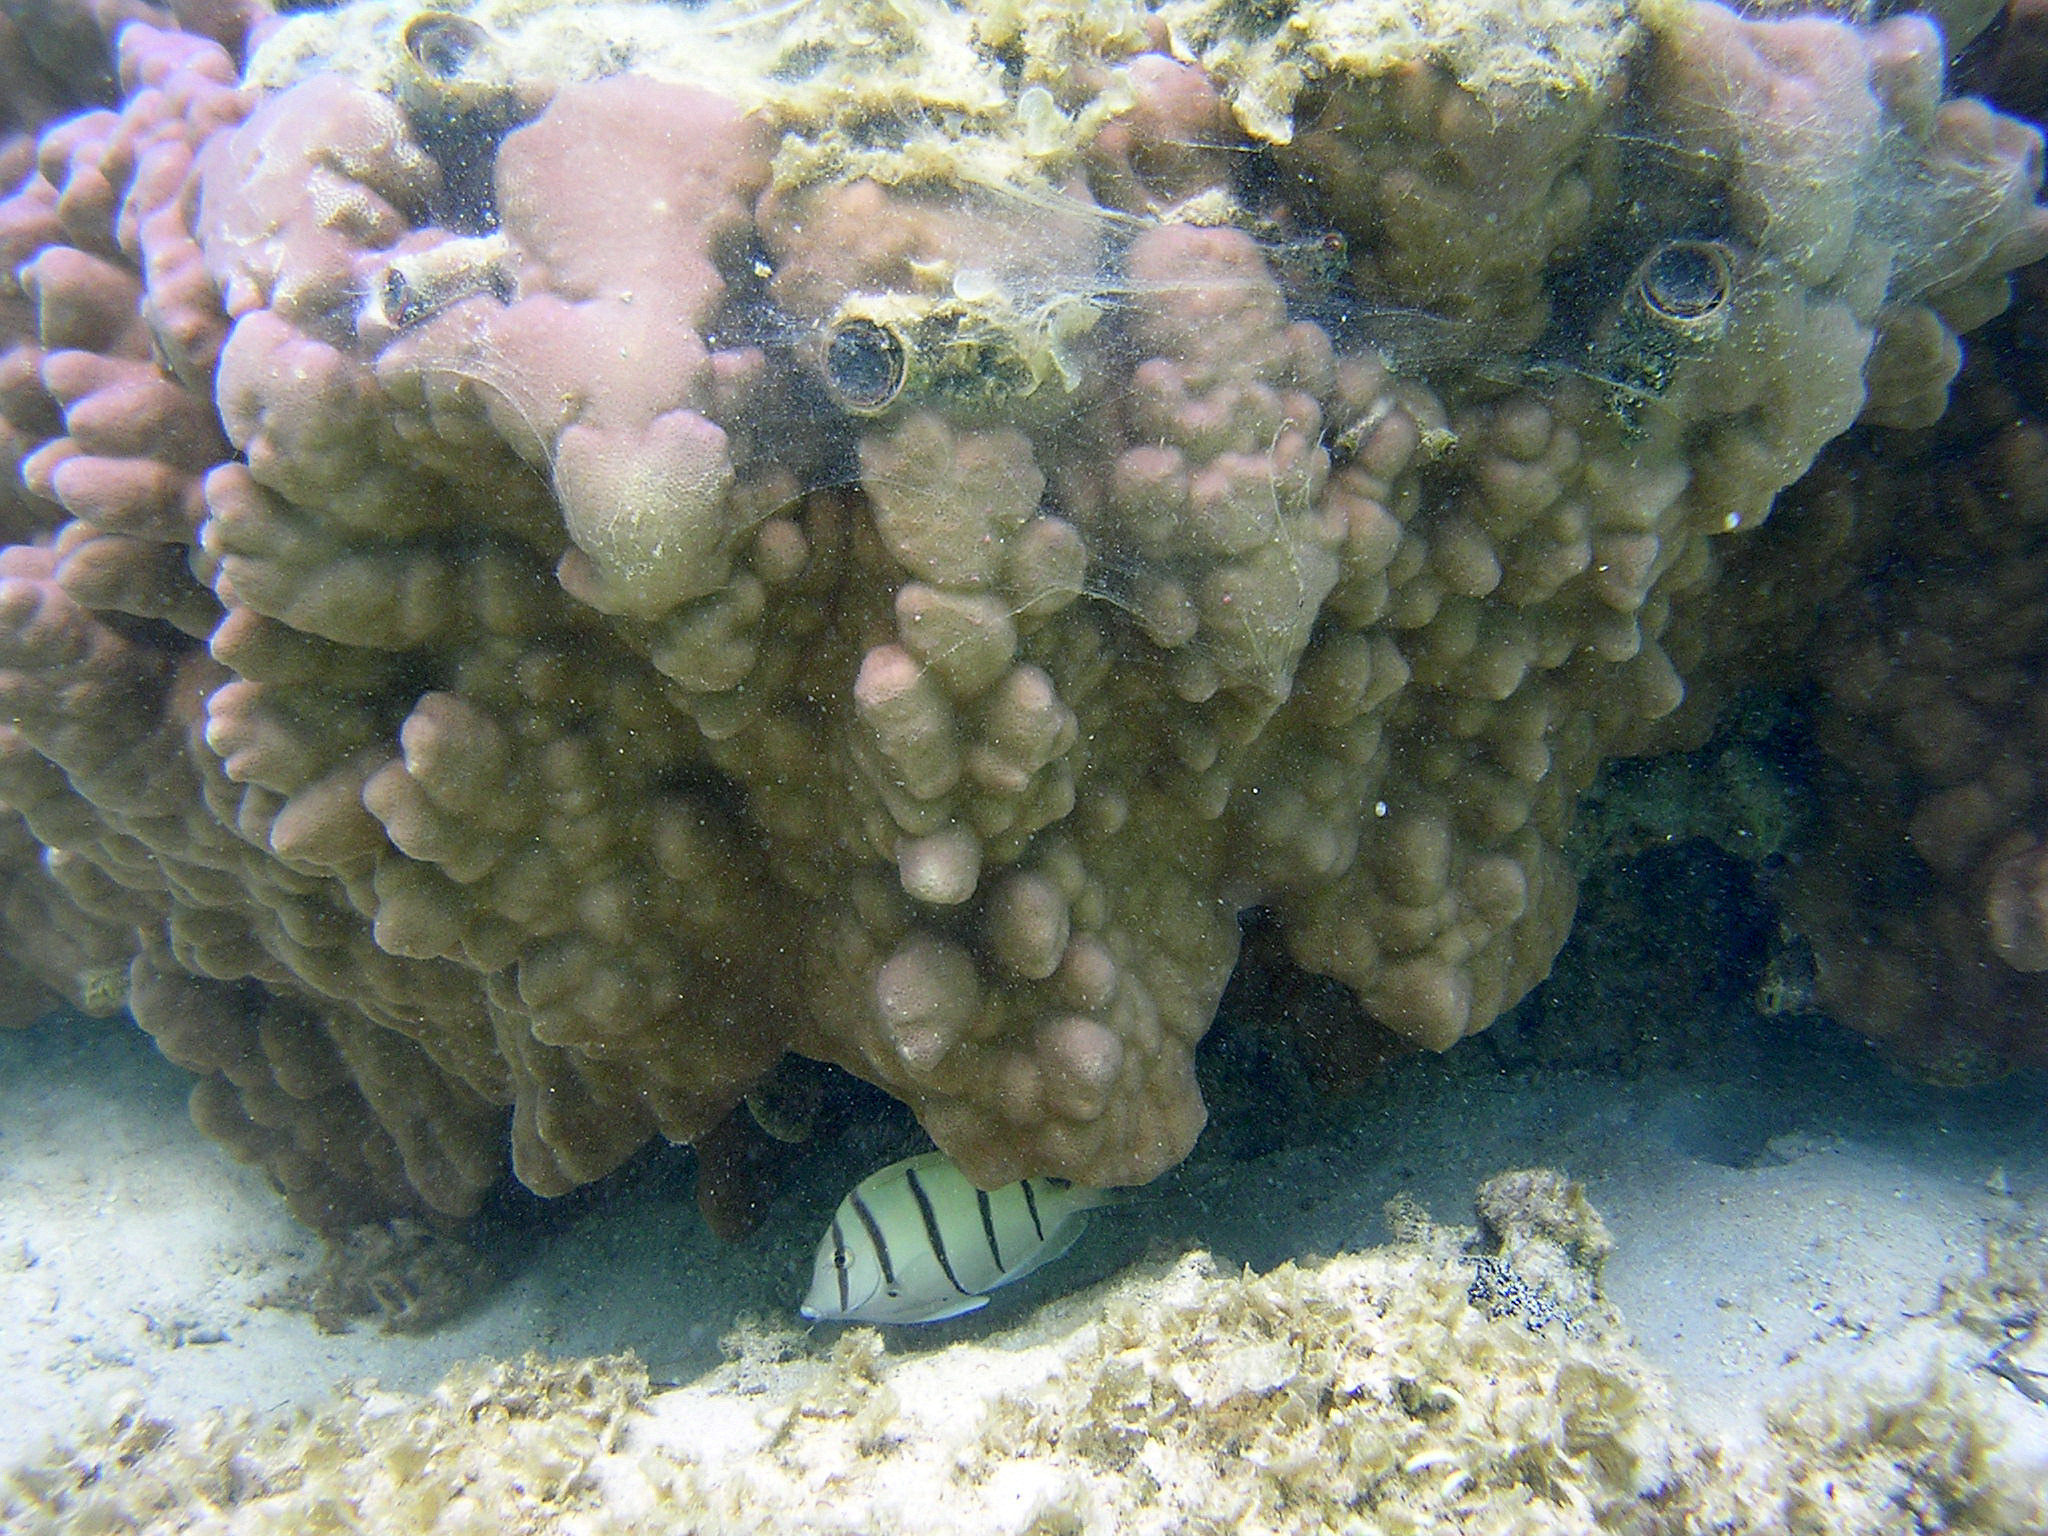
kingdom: Animalia
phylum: Chordata
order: Perciformes
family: Acanthuridae
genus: Acanthurus
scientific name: Acanthurus triostegus
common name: Convict surgeonfish
